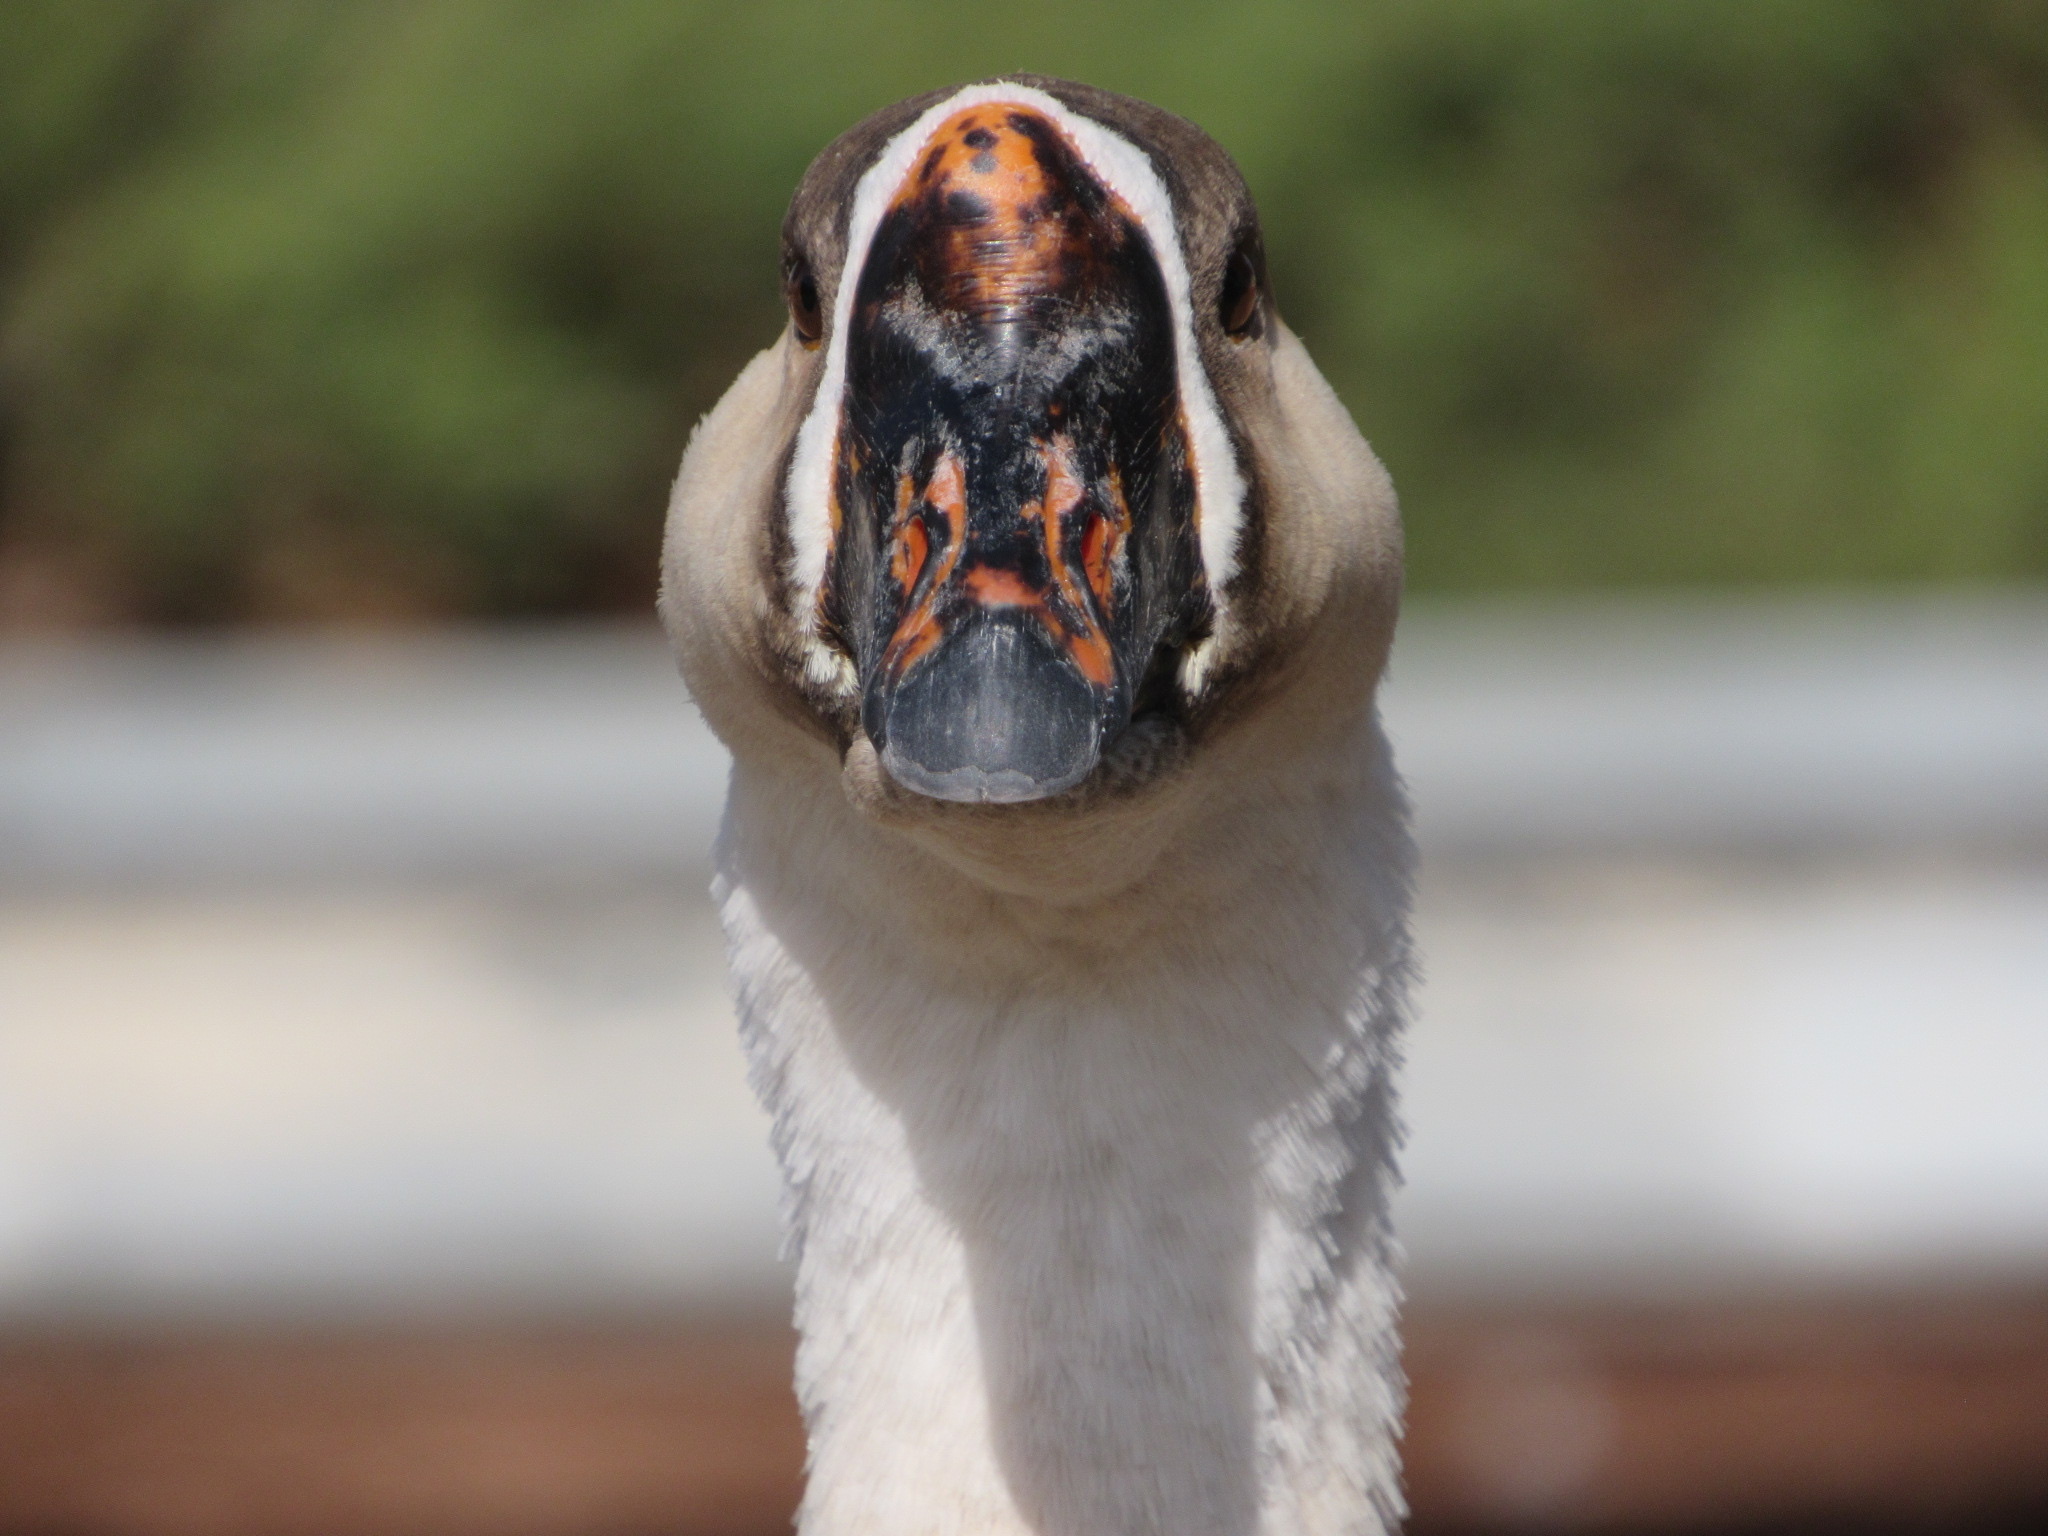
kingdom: Animalia
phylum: Chordata
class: Aves
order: Anseriformes
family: Anatidae
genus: Anser
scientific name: Anser cygnoides
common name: Swan goose
